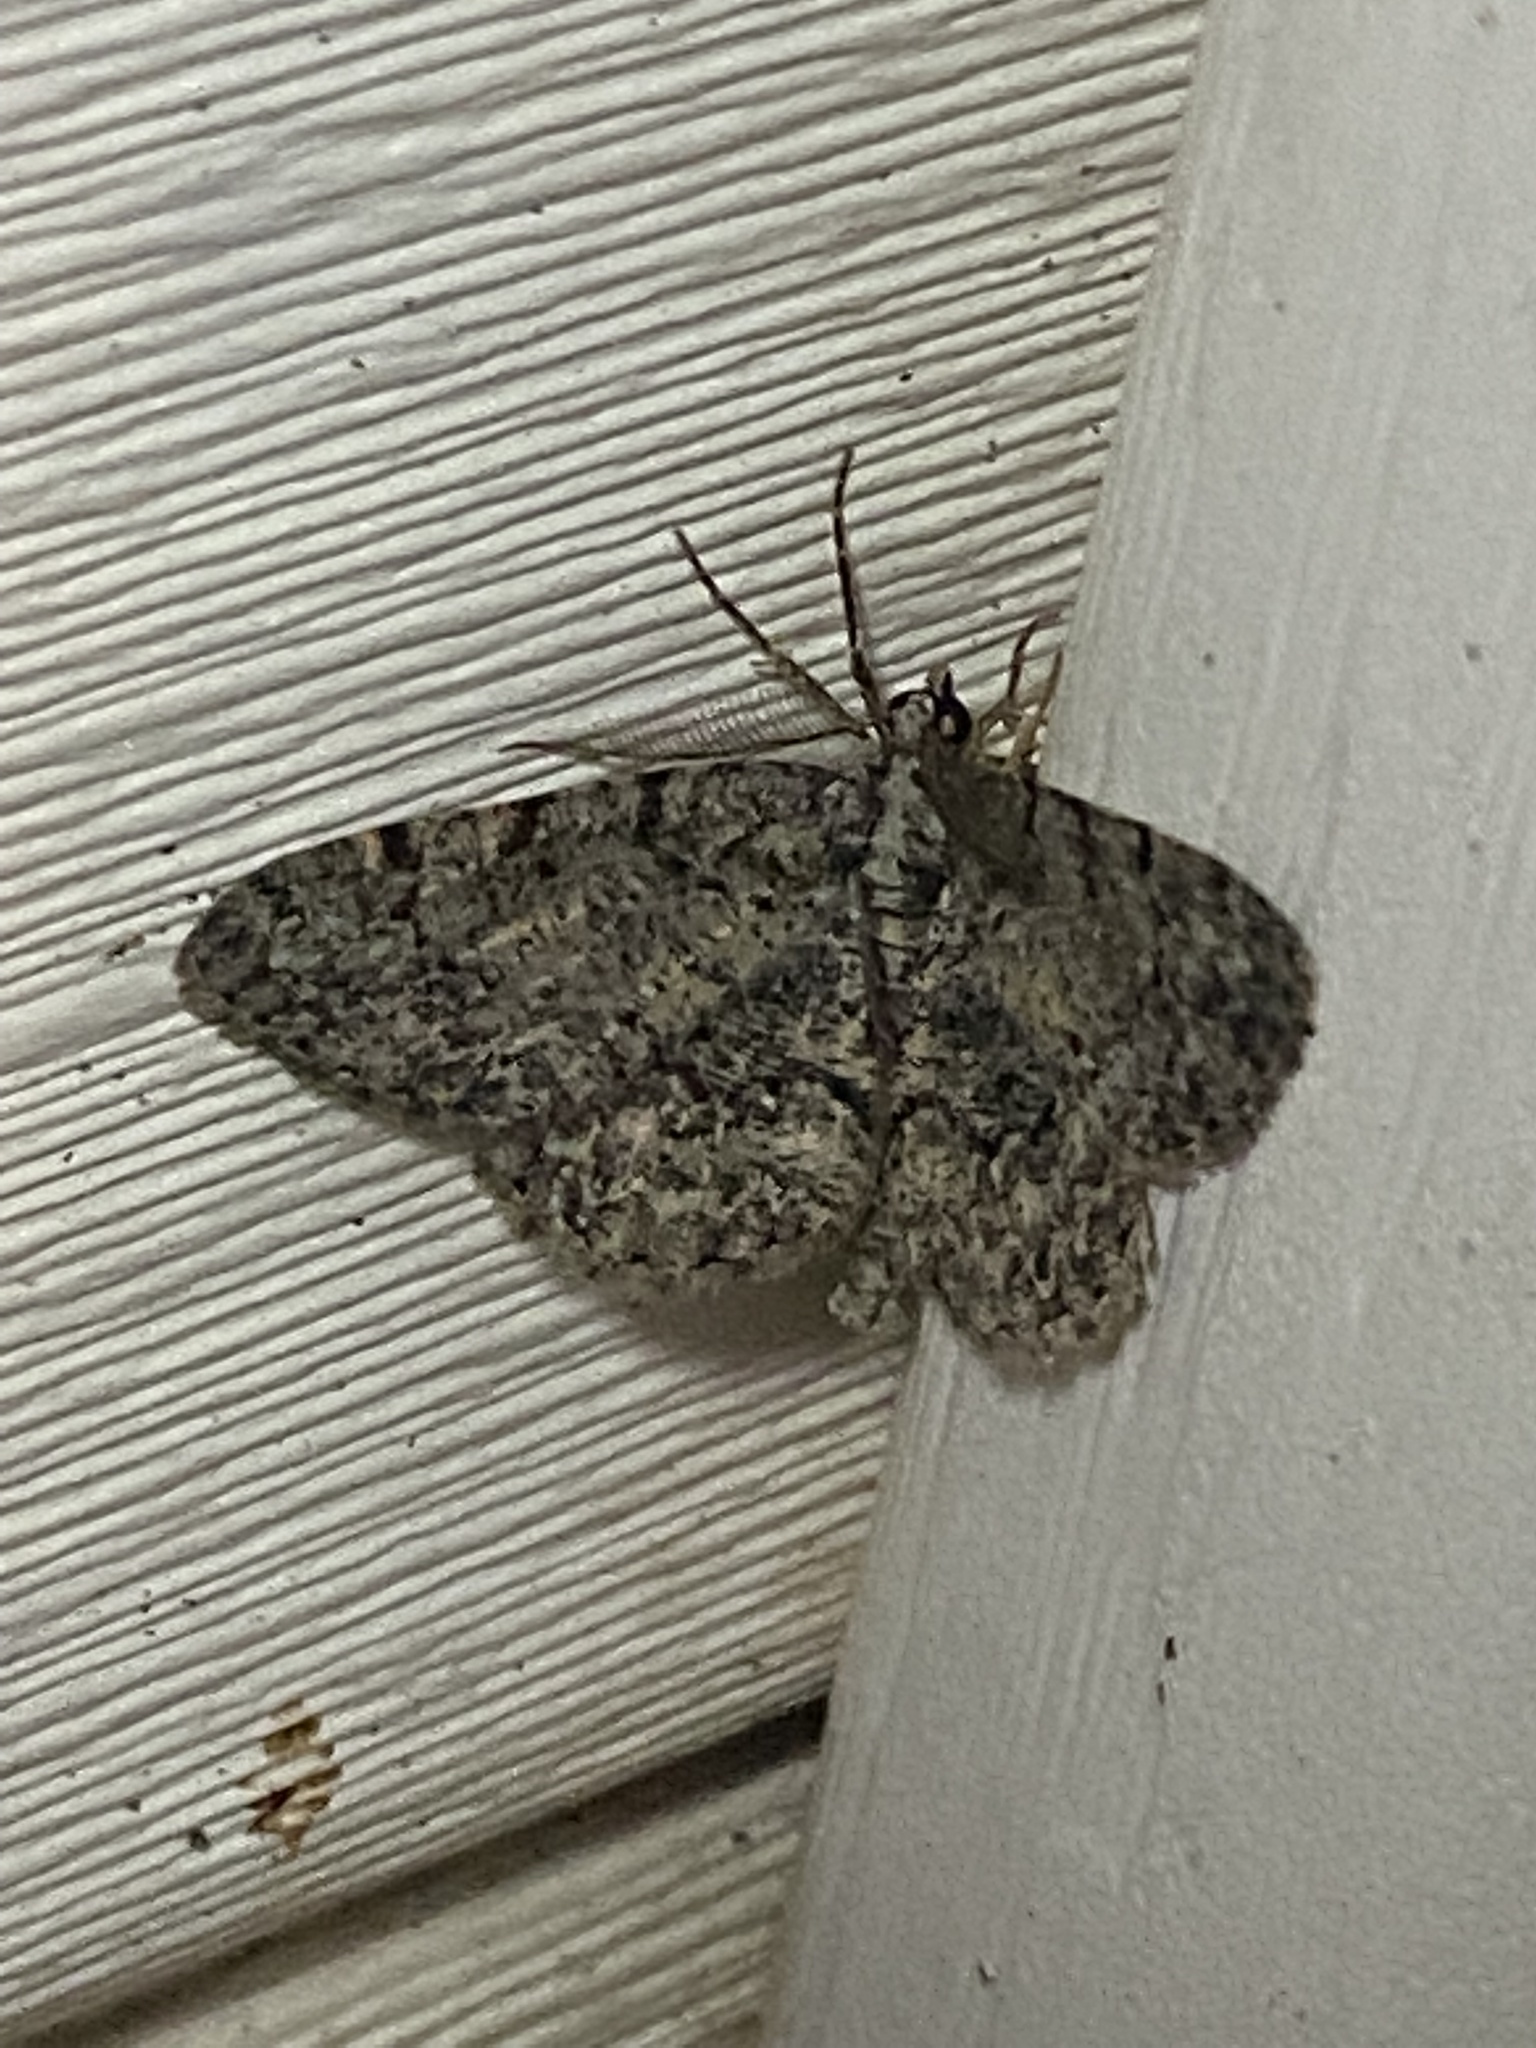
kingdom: Animalia
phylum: Arthropoda
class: Insecta
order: Lepidoptera
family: Geometridae
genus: Protoboarmia
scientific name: Protoboarmia porcelaria
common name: Porcelain gray
